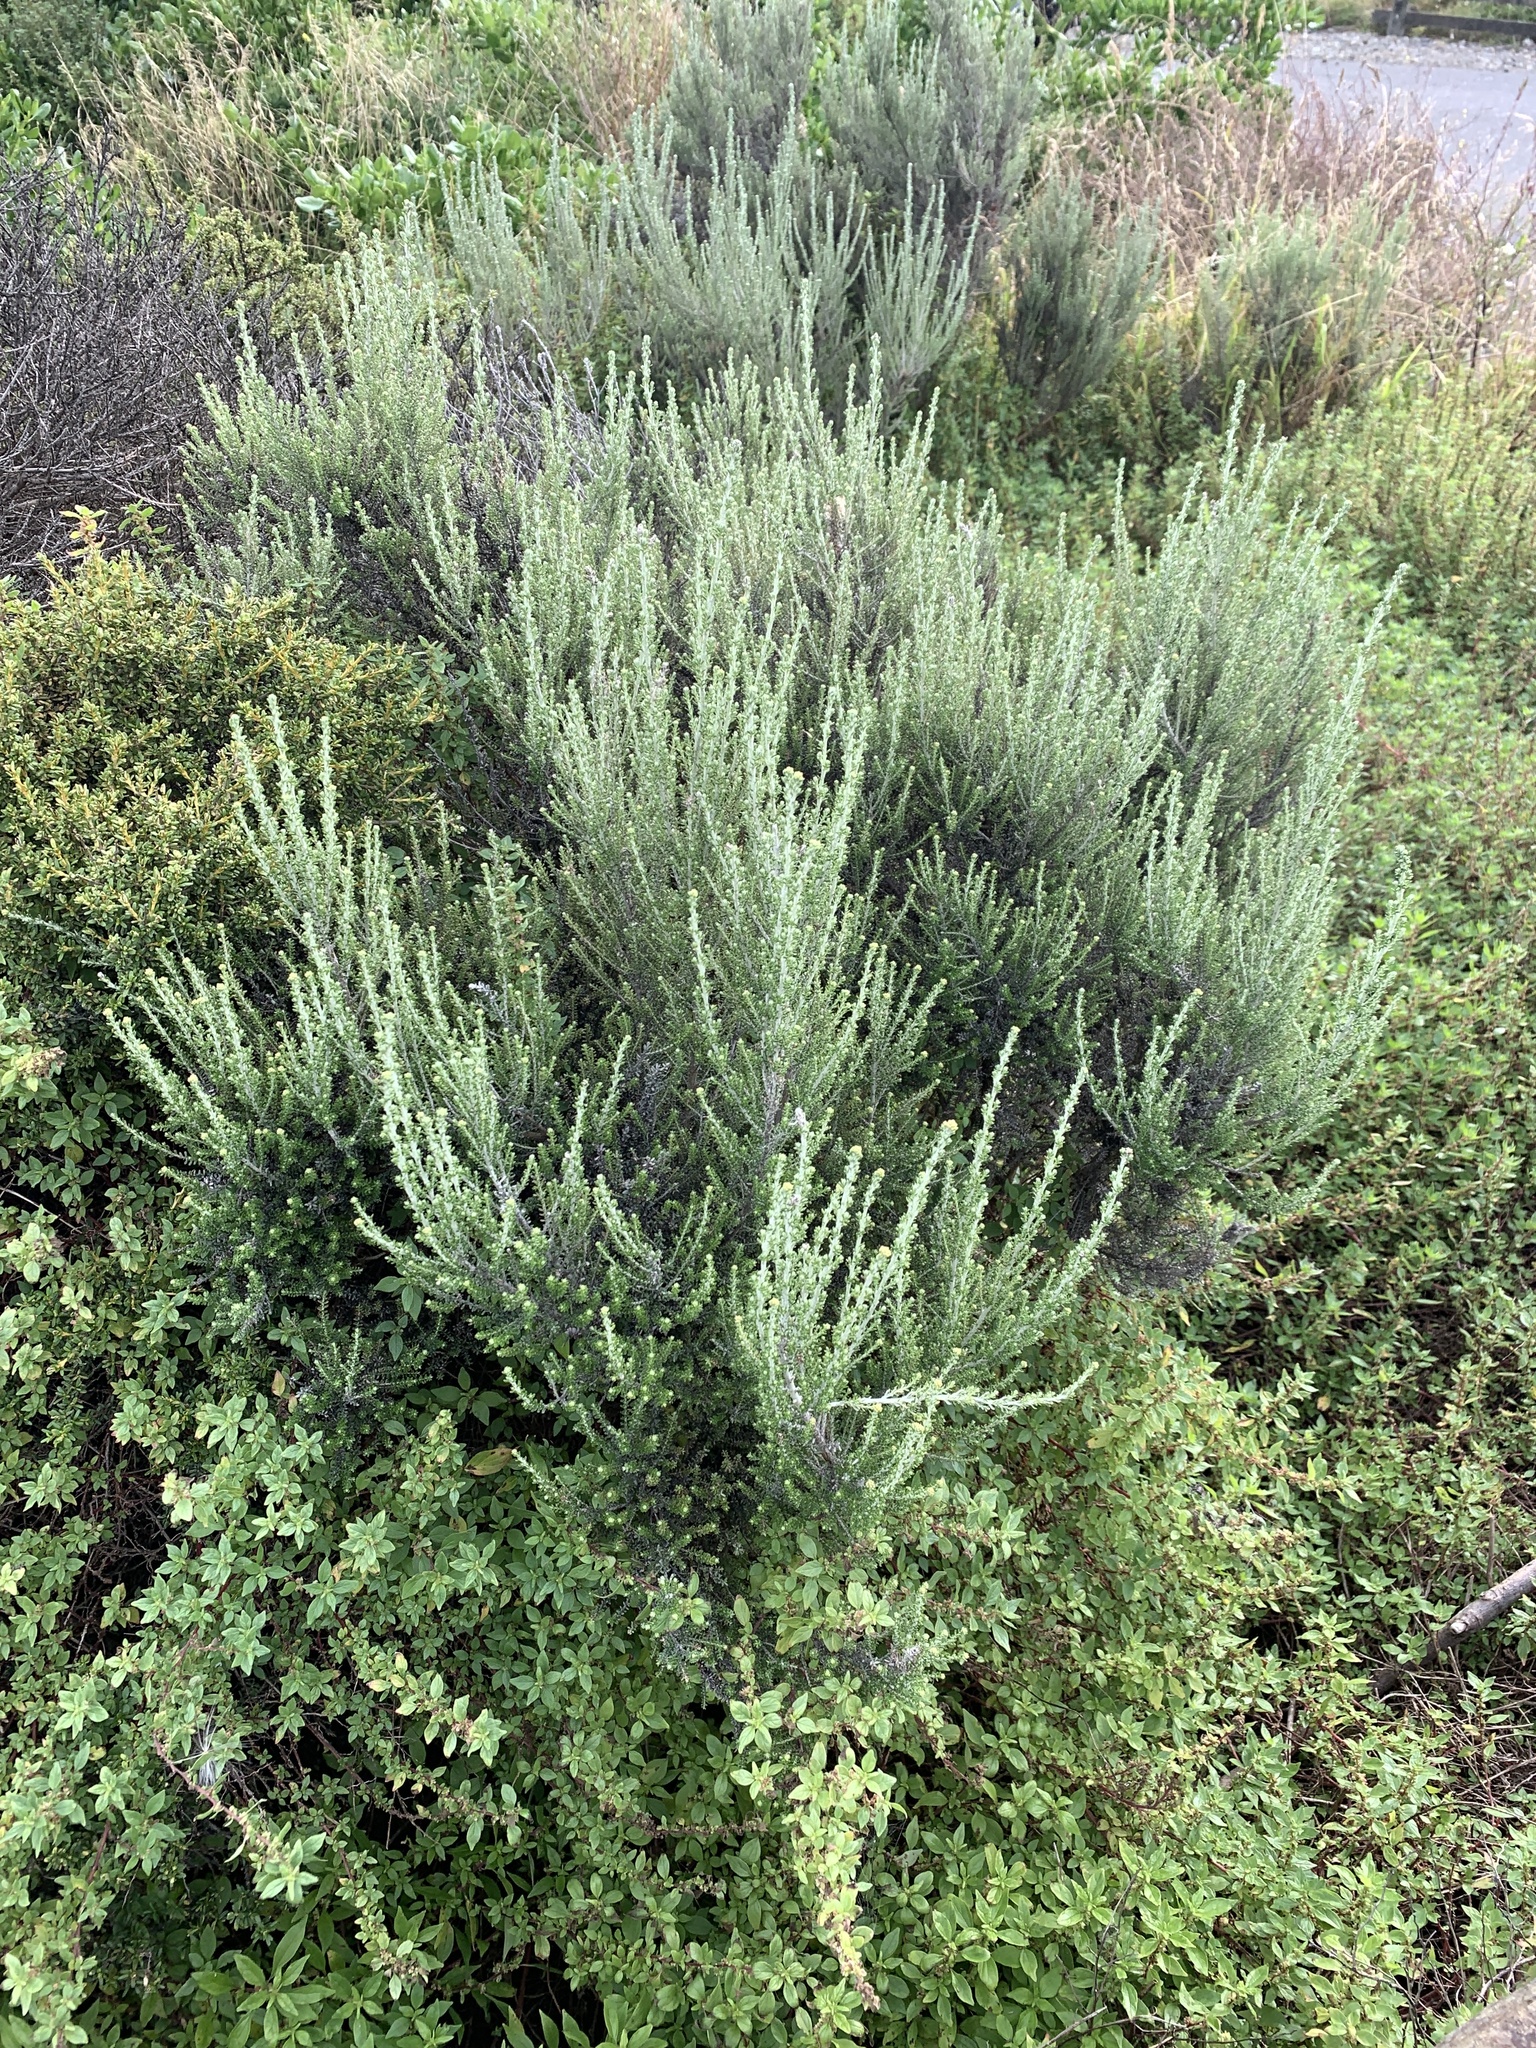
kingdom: Plantae
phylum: Tracheophyta
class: Magnoliopsida
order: Asterales
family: Asteraceae
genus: Ozothamnus
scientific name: Ozothamnus leptophyllus
